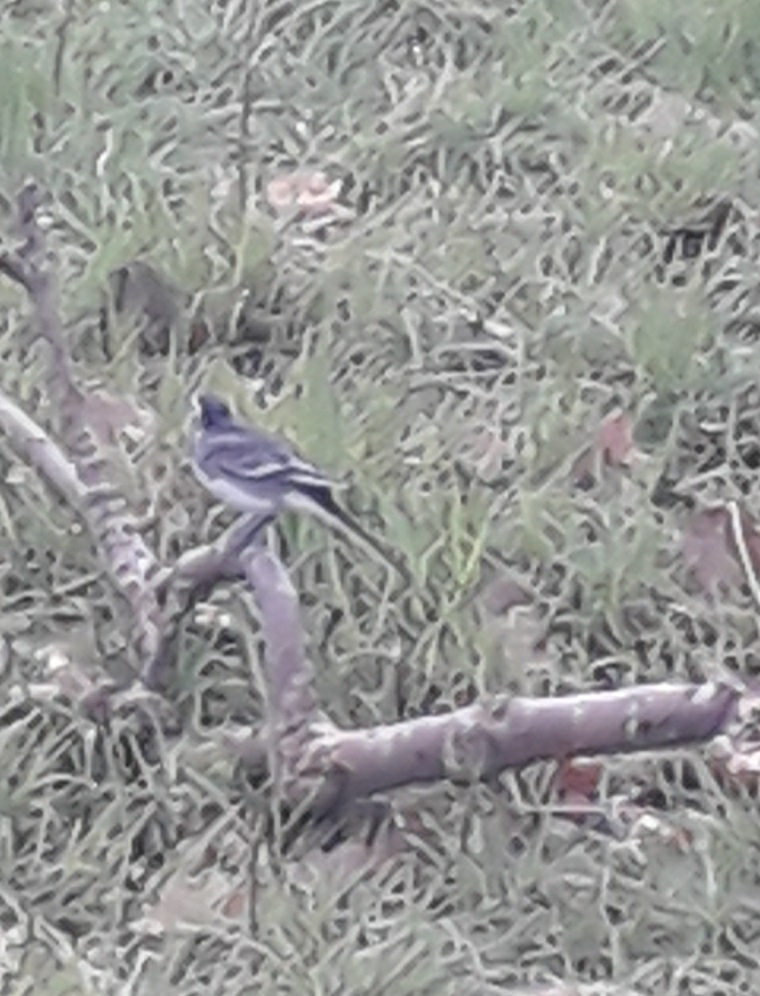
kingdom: Animalia
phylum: Chordata
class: Aves
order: Passeriformes
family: Motacillidae
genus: Motacilla
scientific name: Motacilla alba
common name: White wagtail
